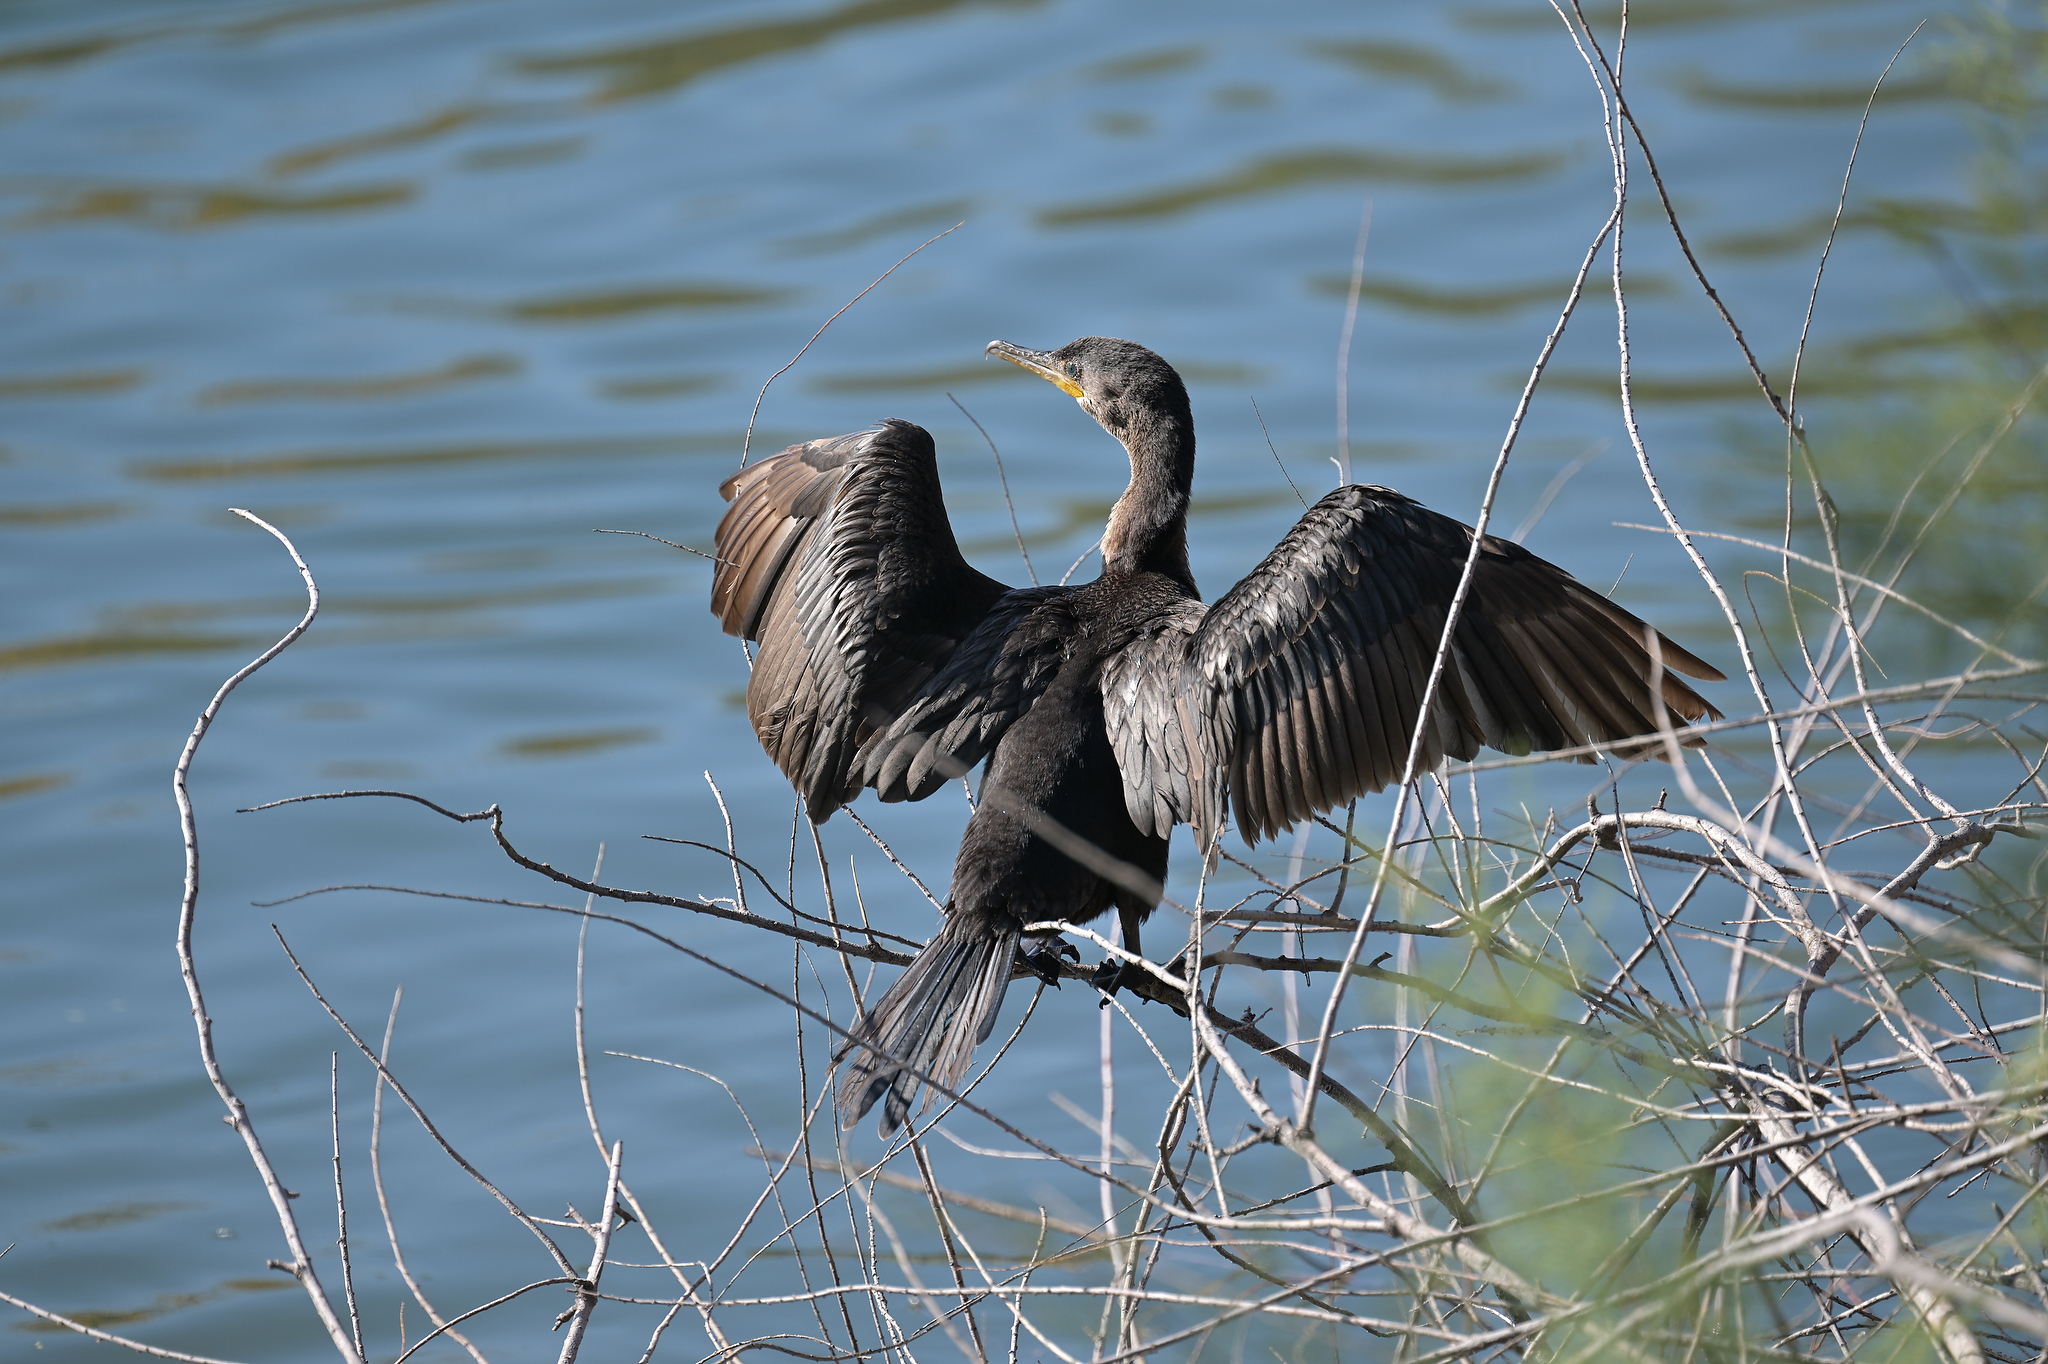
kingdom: Animalia
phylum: Chordata
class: Aves
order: Suliformes
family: Phalacrocoracidae
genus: Phalacrocorax
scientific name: Phalacrocorax brasilianus
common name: Neotropic cormorant
